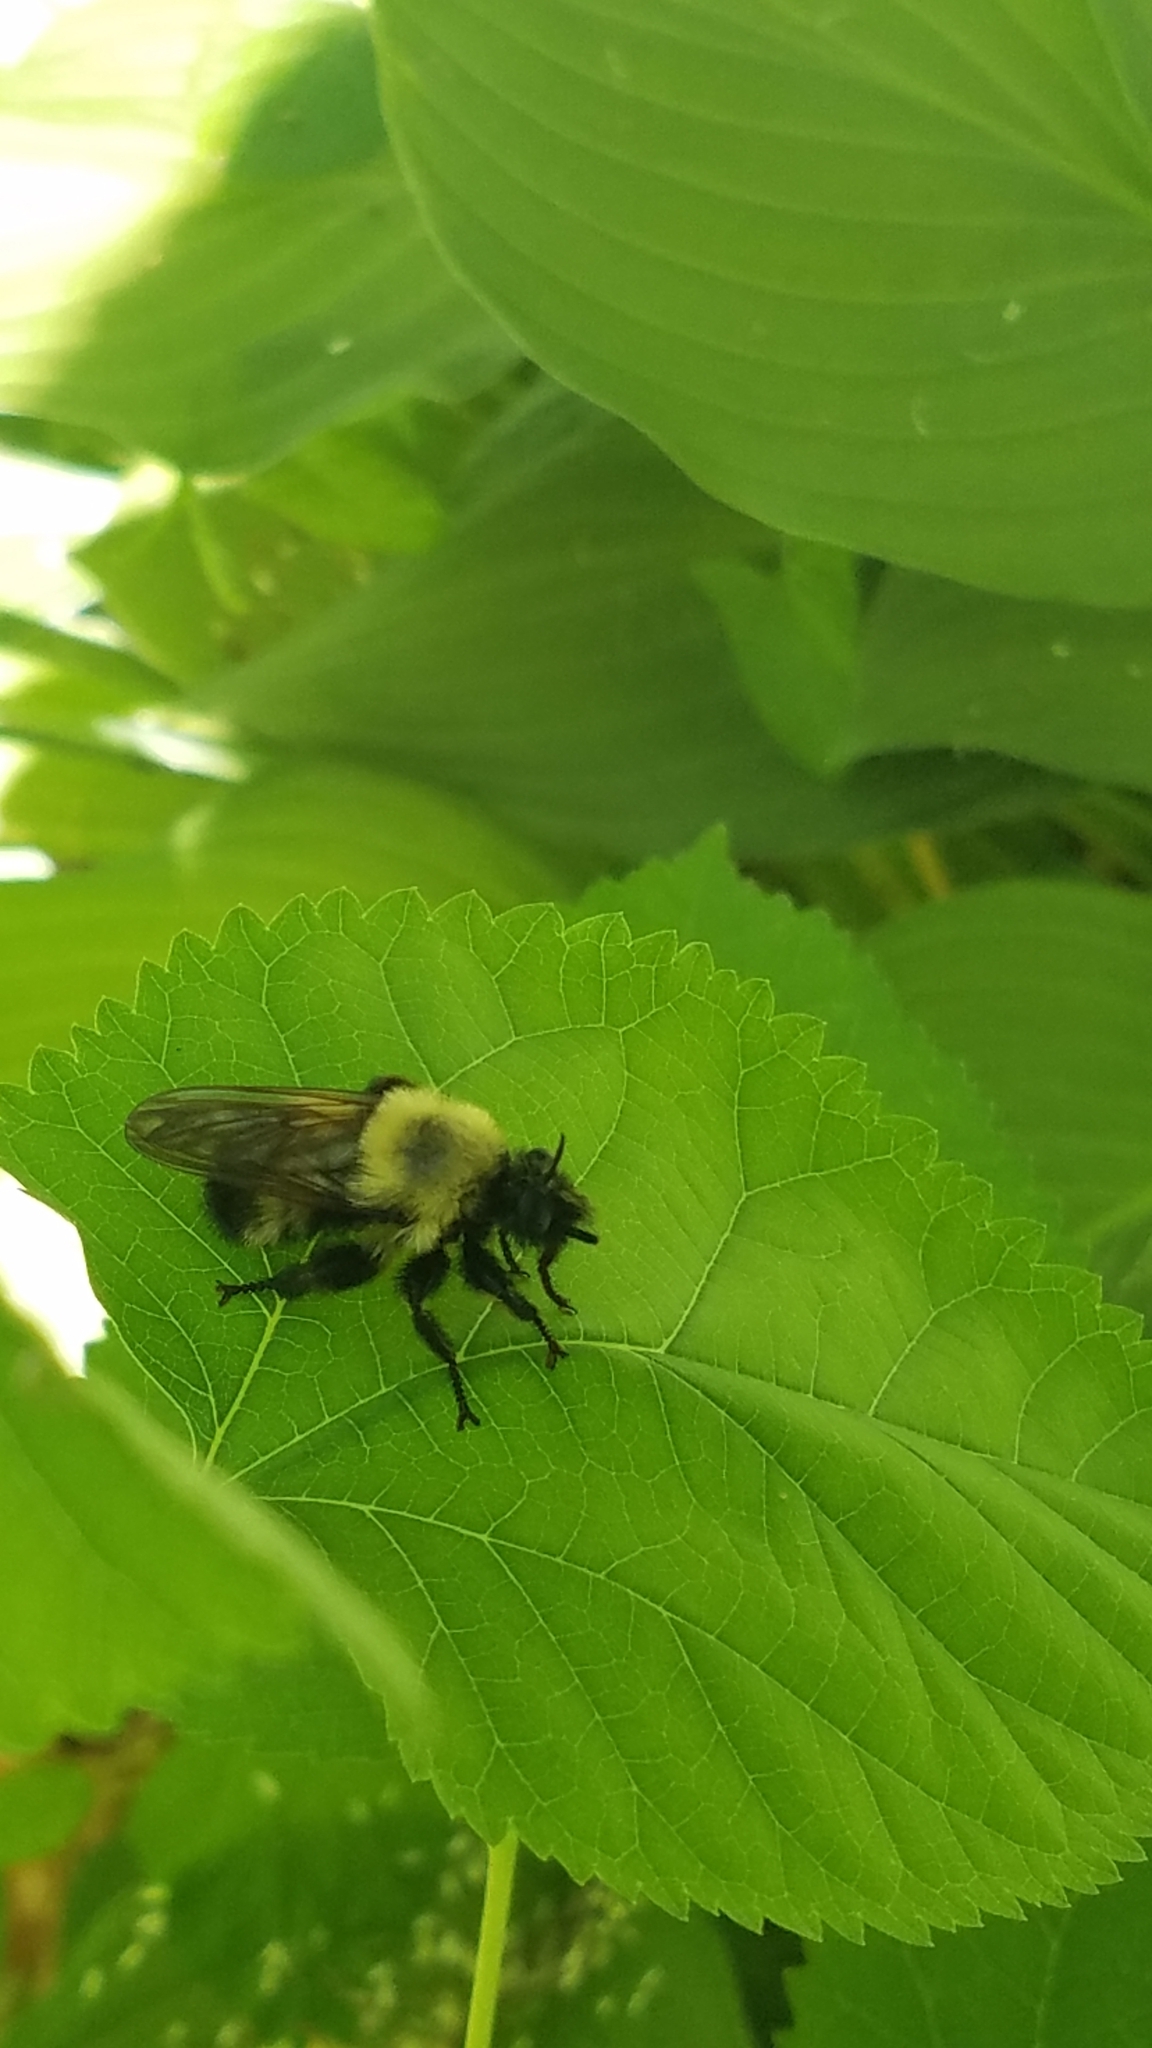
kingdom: Animalia
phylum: Arthropoda
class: Insecta
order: Diptera
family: Asilidae
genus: Laphria
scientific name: Laphria thoracica
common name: Bumble bee mimic robber fly
